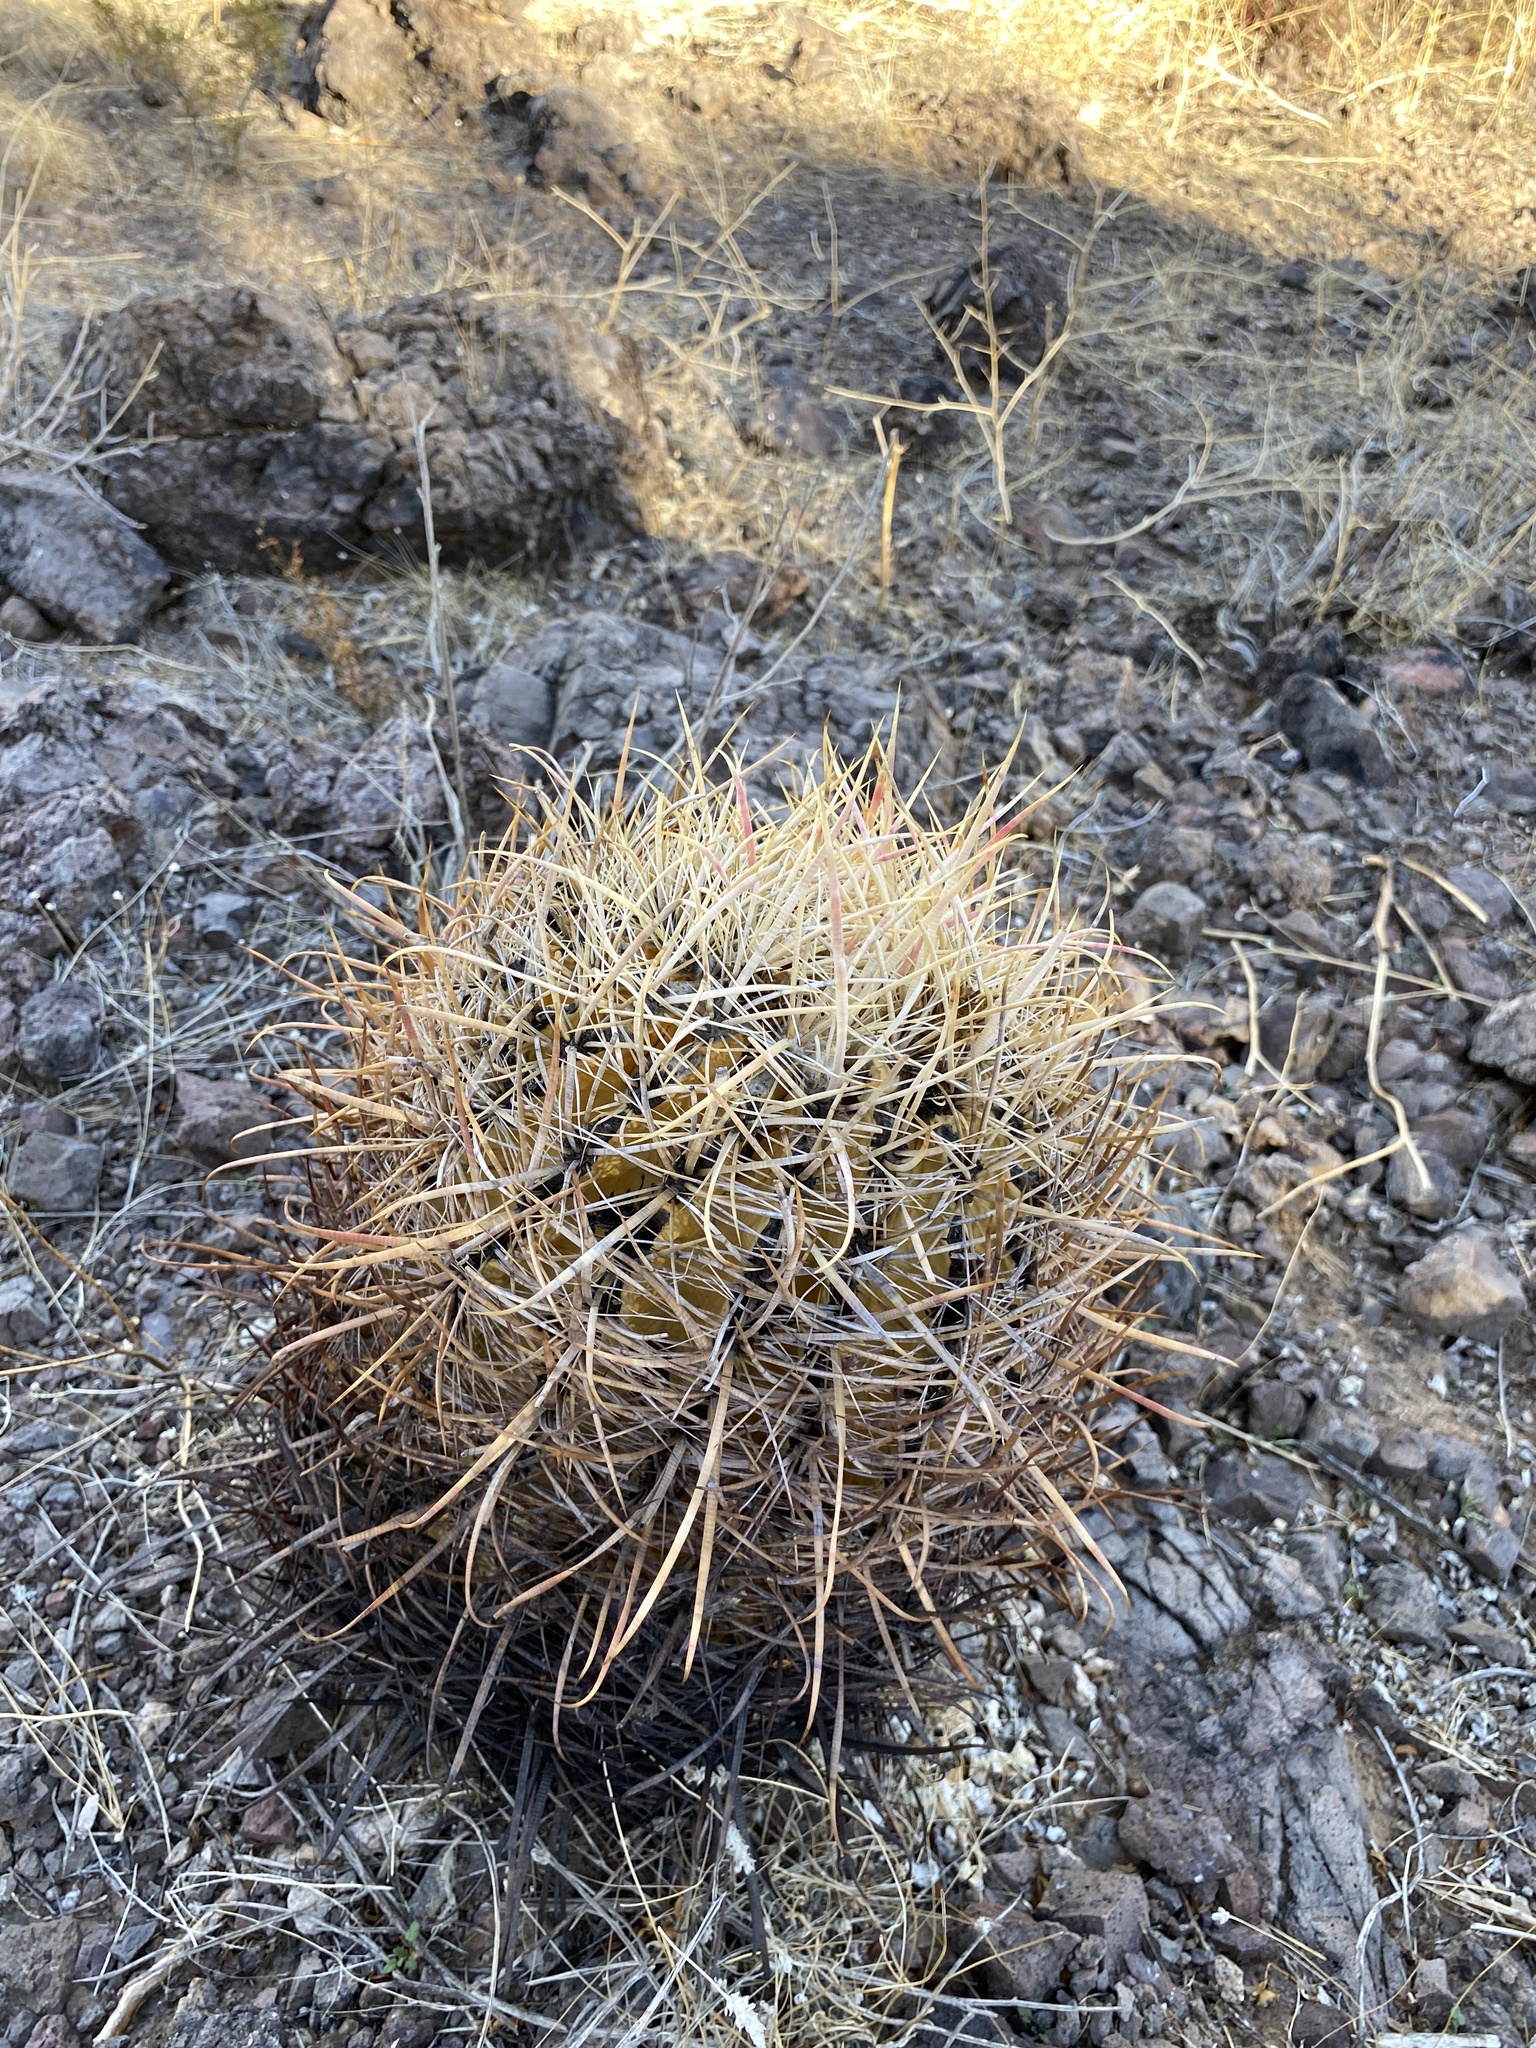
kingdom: Plantae
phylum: Tracheophyta
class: Magnoliopsida
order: Caryophyllales
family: Cactaceae
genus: Ferocactus
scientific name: Ferocactus cylindraceus
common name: California barrel cactus
